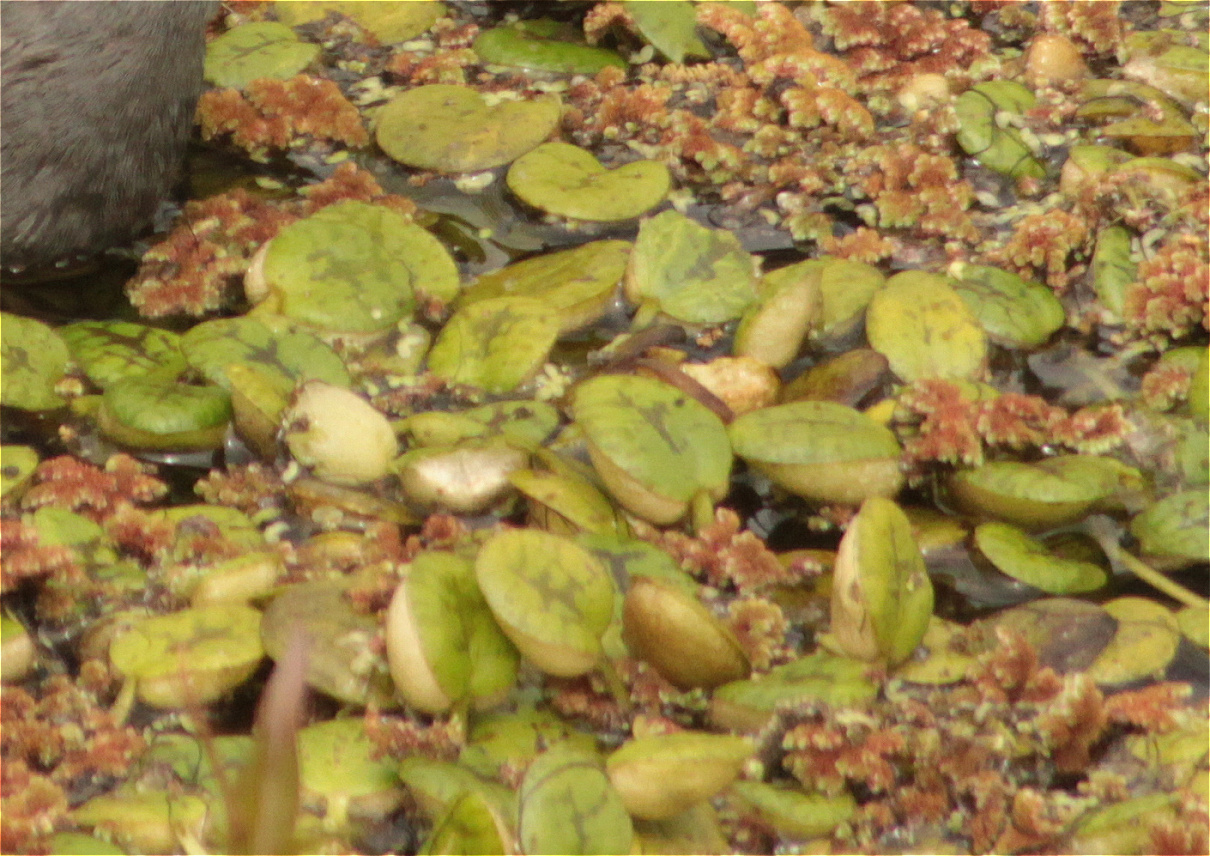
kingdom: Plantae
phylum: Tracheophyta
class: Liliopsida
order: Alismatales
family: Hydrocharitaceae
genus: Hydrocharis
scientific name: Hydrocharis laevigata
